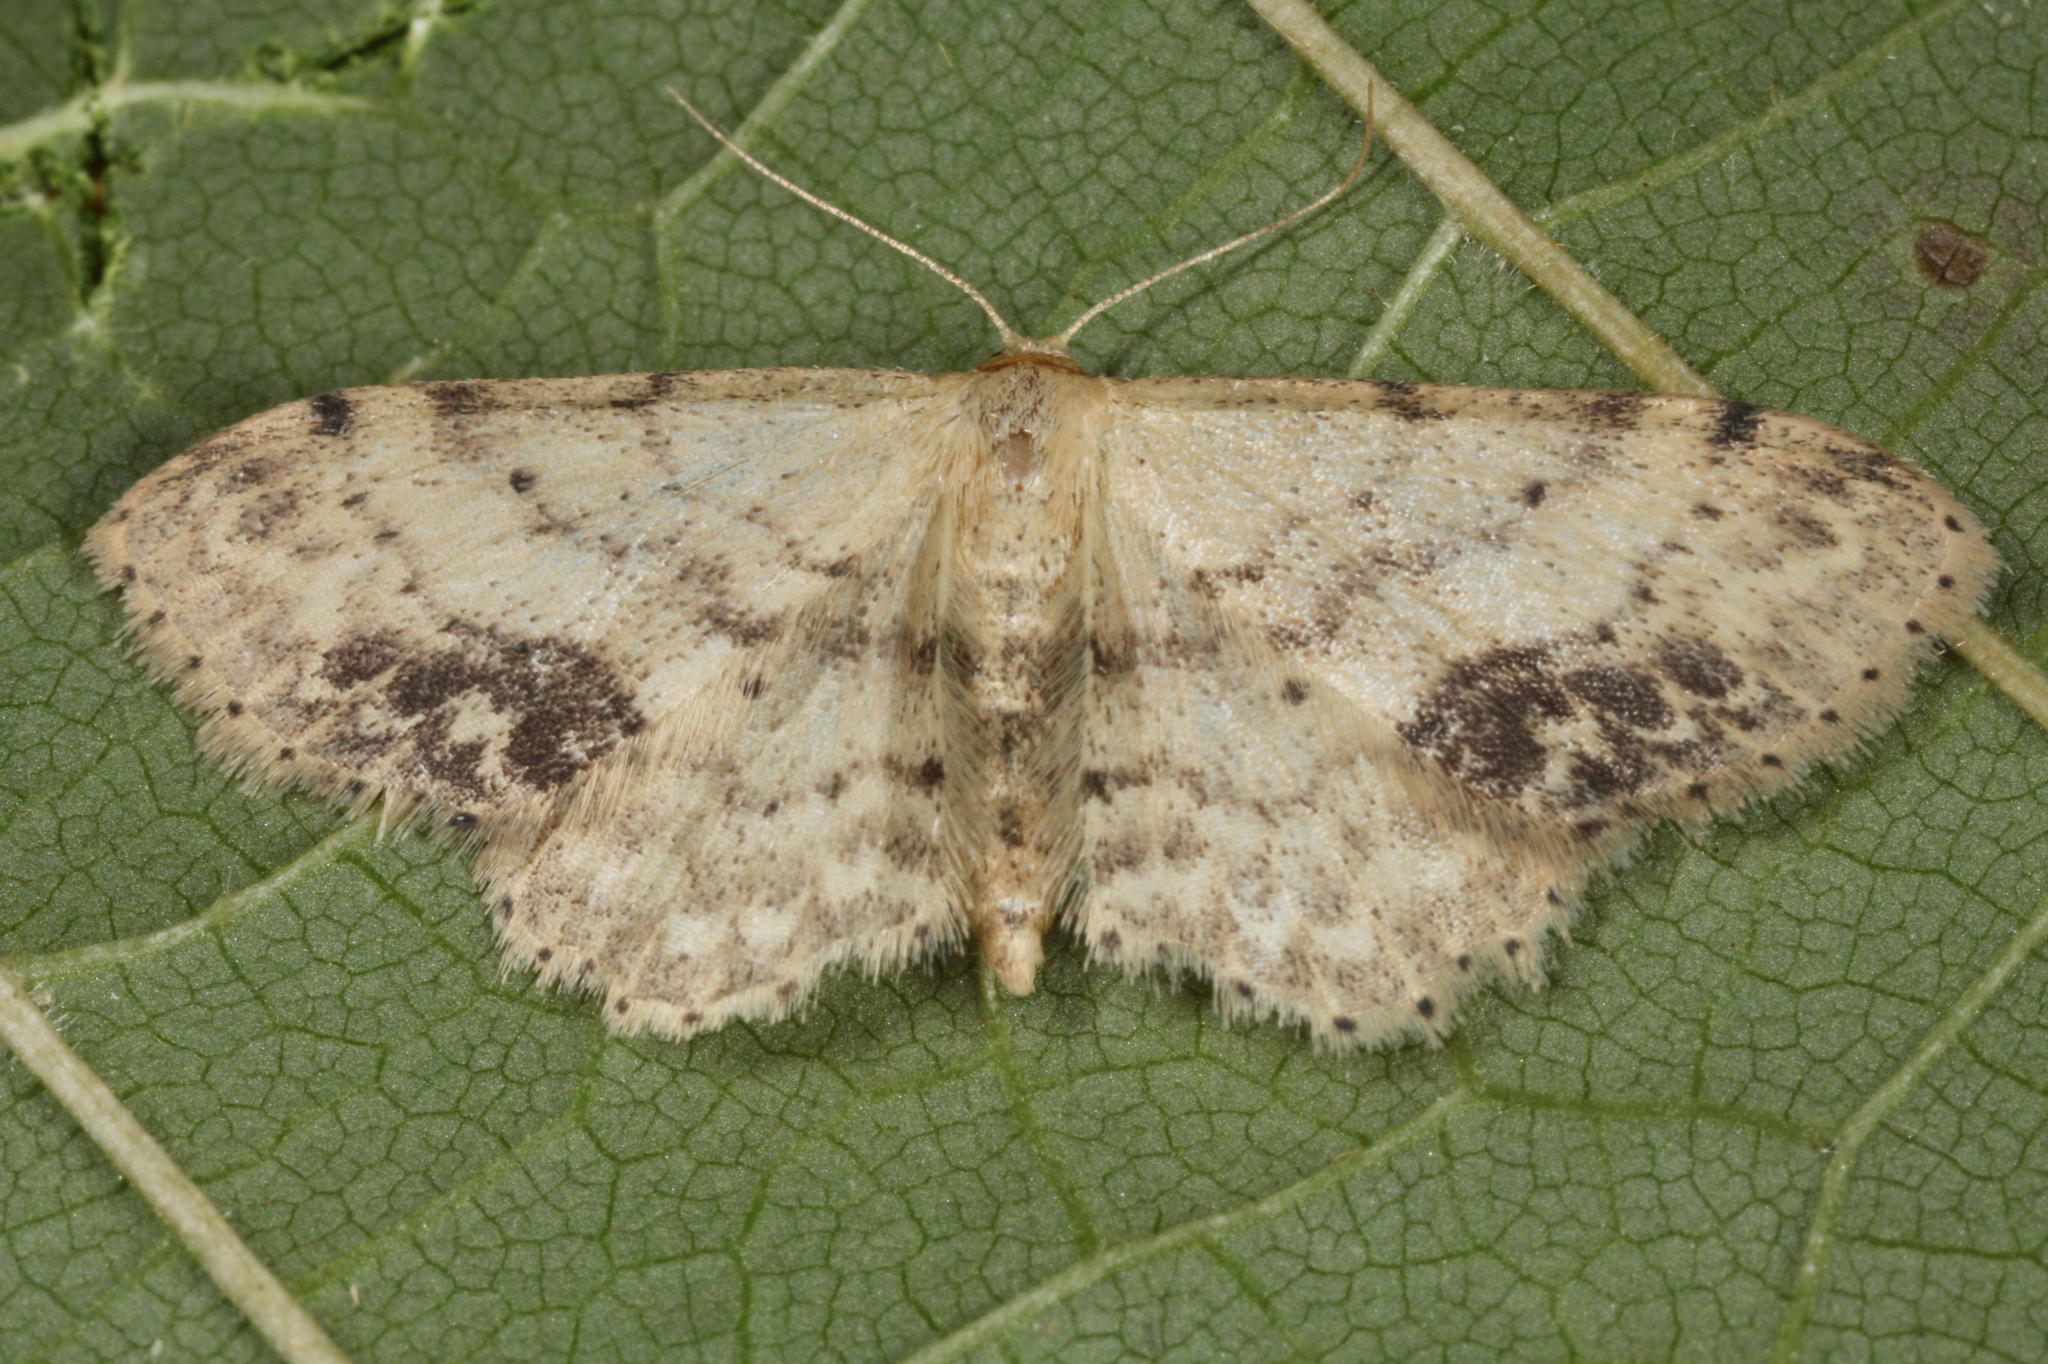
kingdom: Animalia
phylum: Arthropoda
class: Insecta
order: Lepidoptera
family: Geometridae
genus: Idaea
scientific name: Idaea dimidiata
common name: Single-dotted wave
